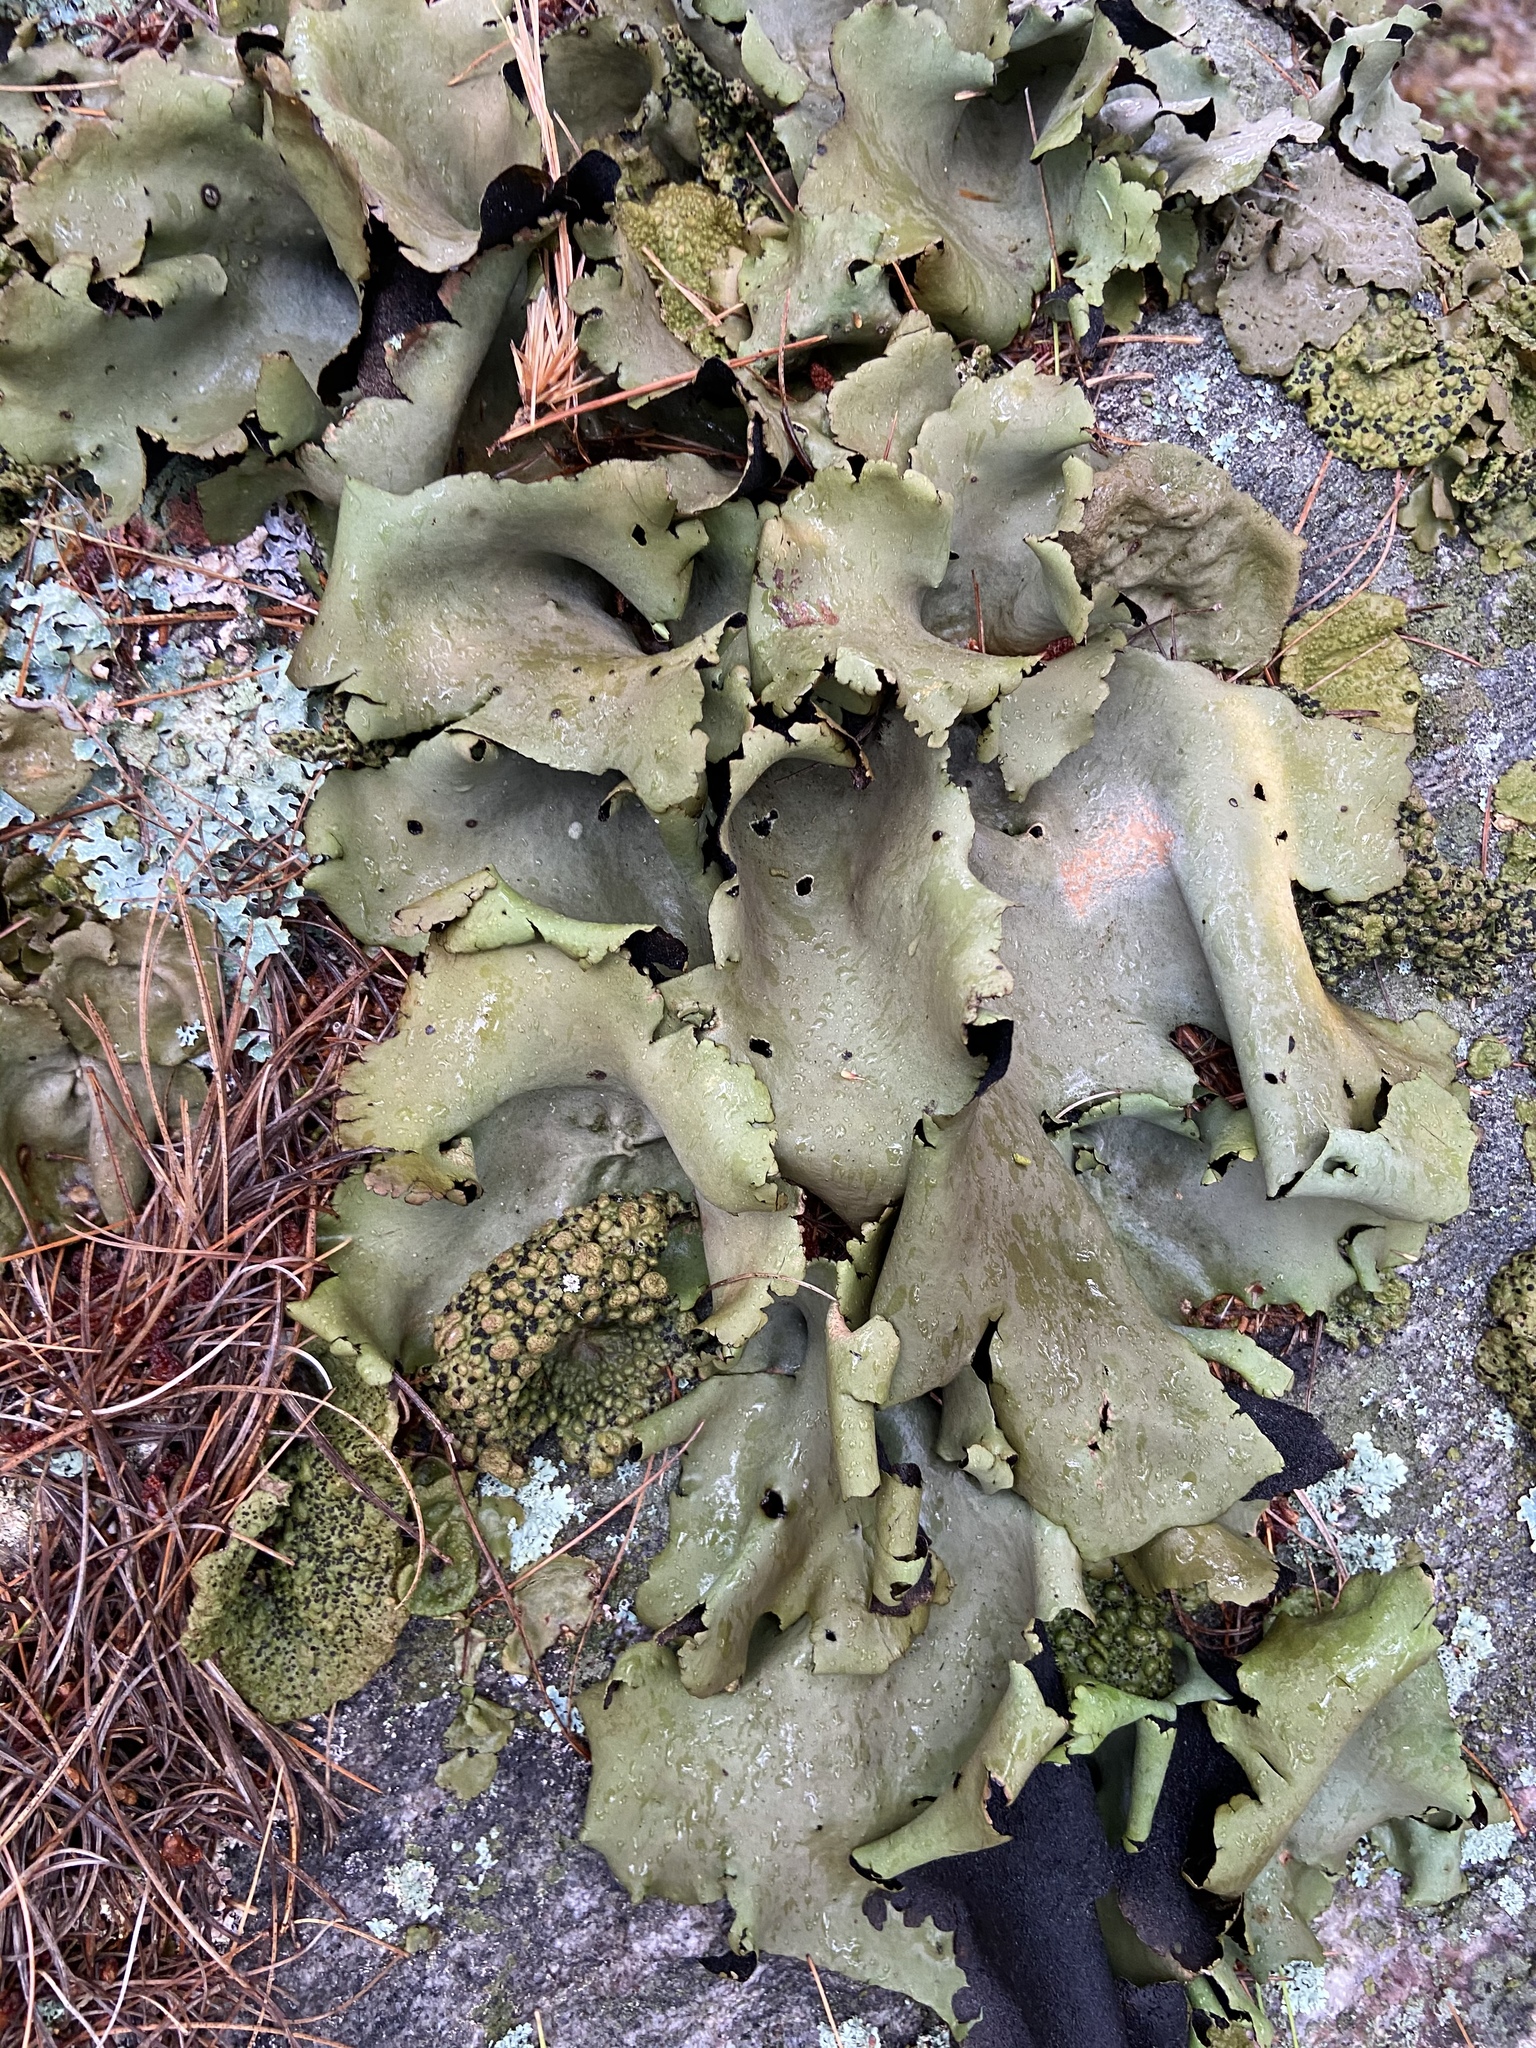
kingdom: Fungi
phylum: Ascomycota
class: Lecanoromycetes
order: Umbilicariales
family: Umbilicariaceae
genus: Umbilicaria
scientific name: Umbilicaria mammulata
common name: Smooth rock tripe
